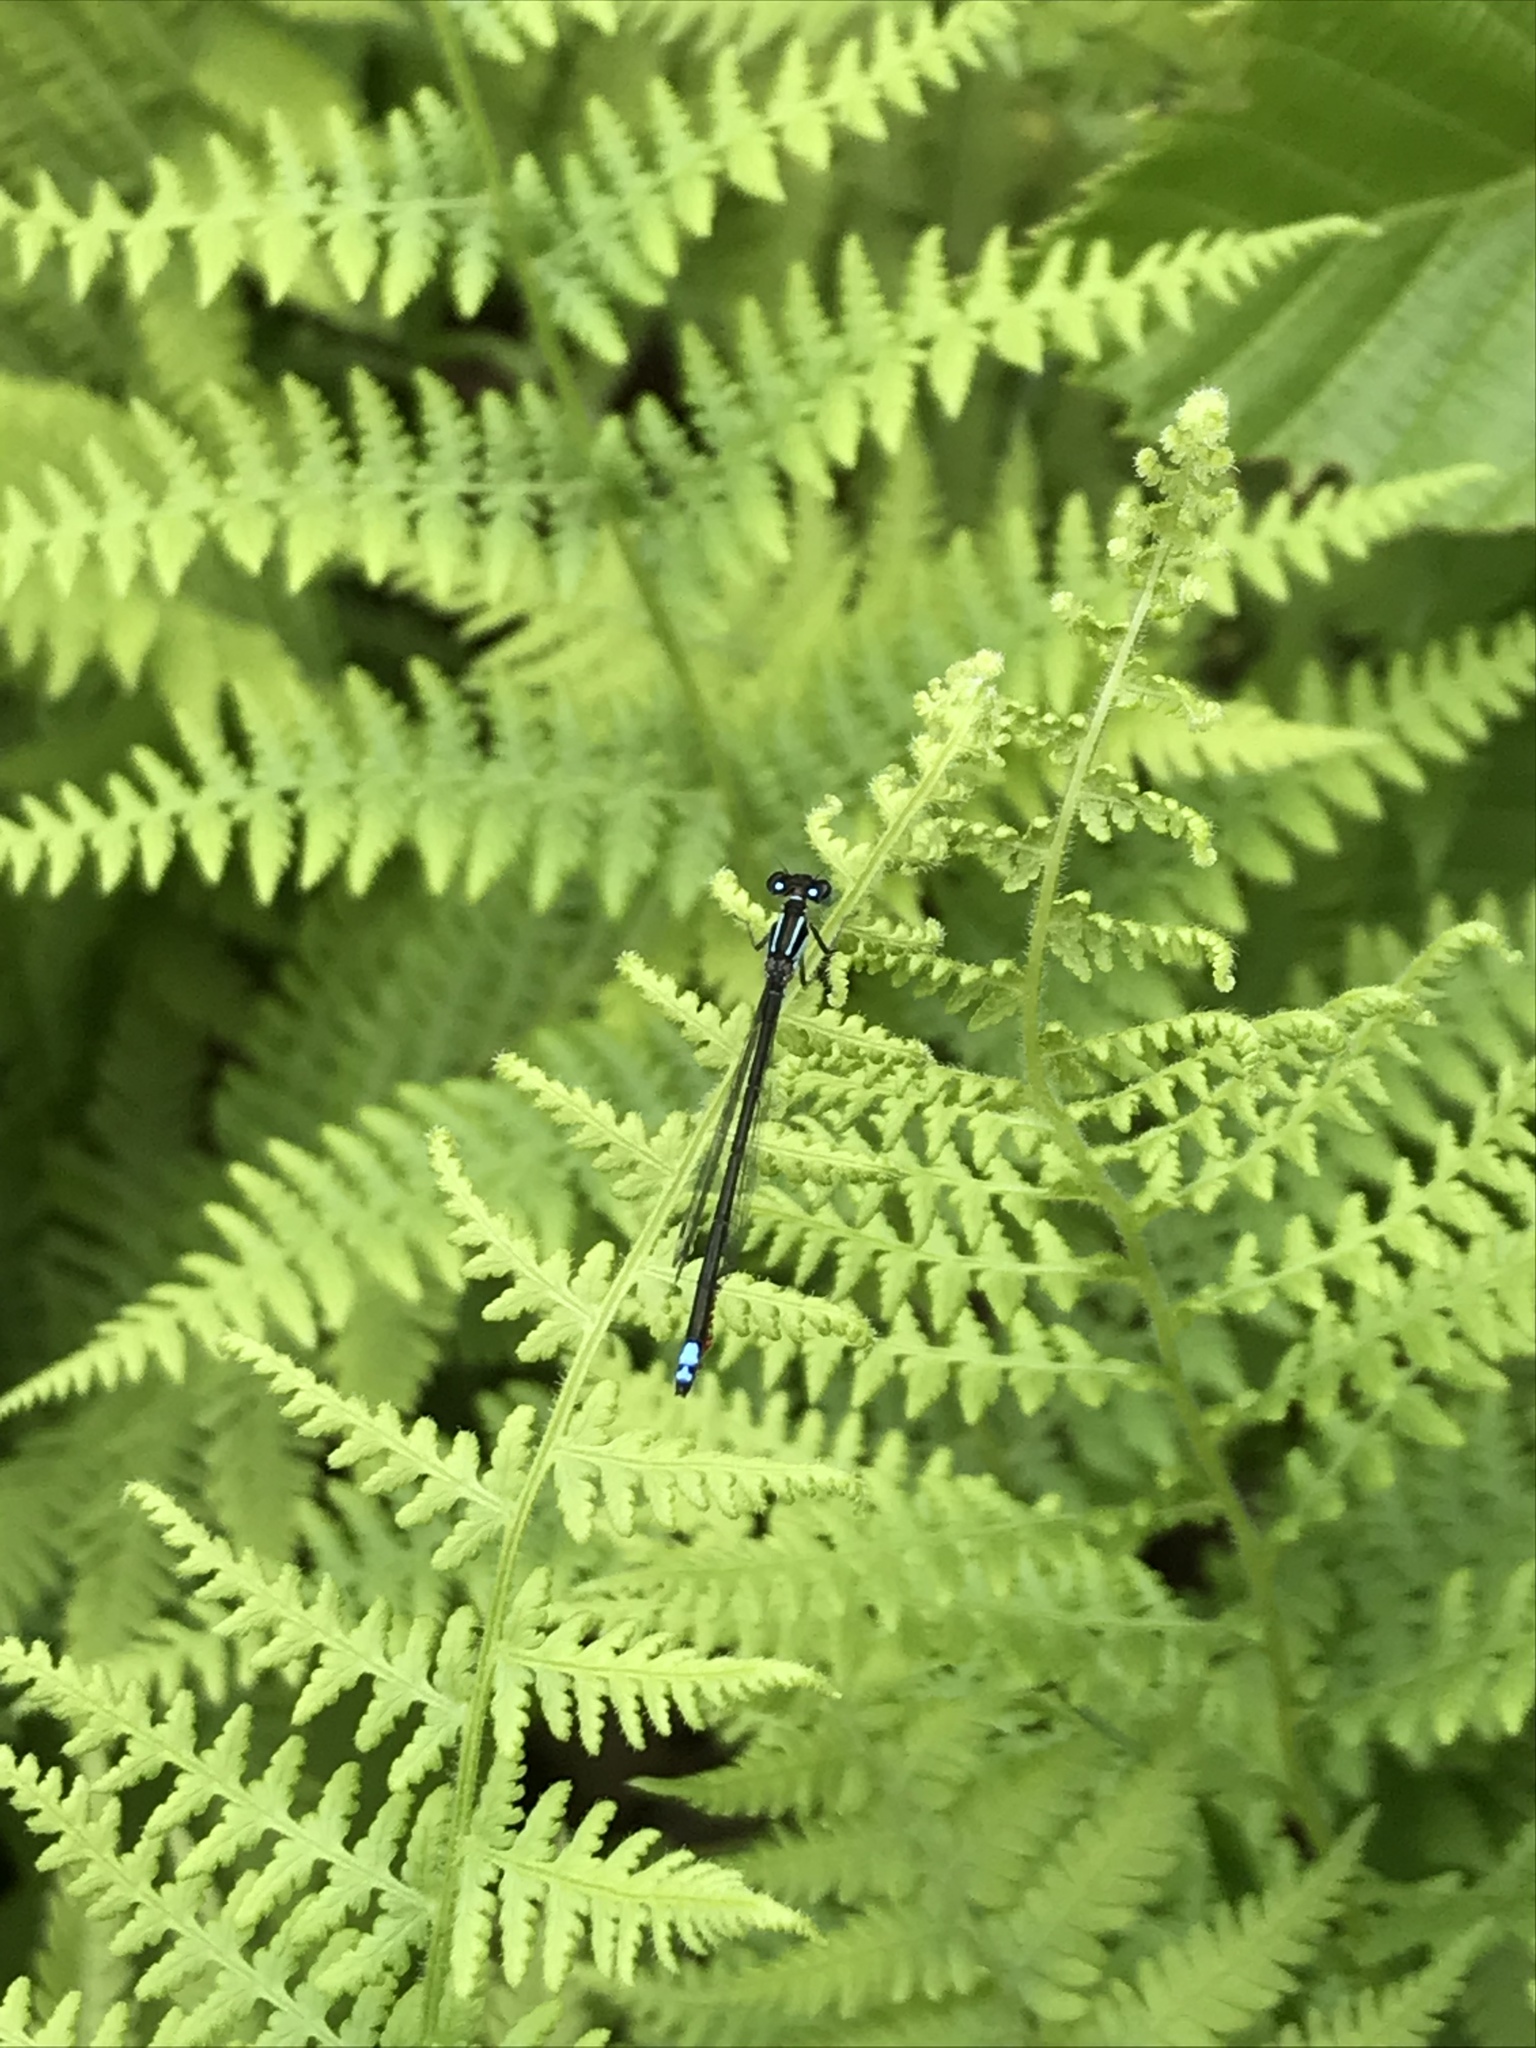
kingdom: Animalia
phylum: Arthropoda
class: Insecta
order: Odonata
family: Coenagrionidae
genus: Ischnura
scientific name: Ischnura verticalis
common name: Eastern forktail
